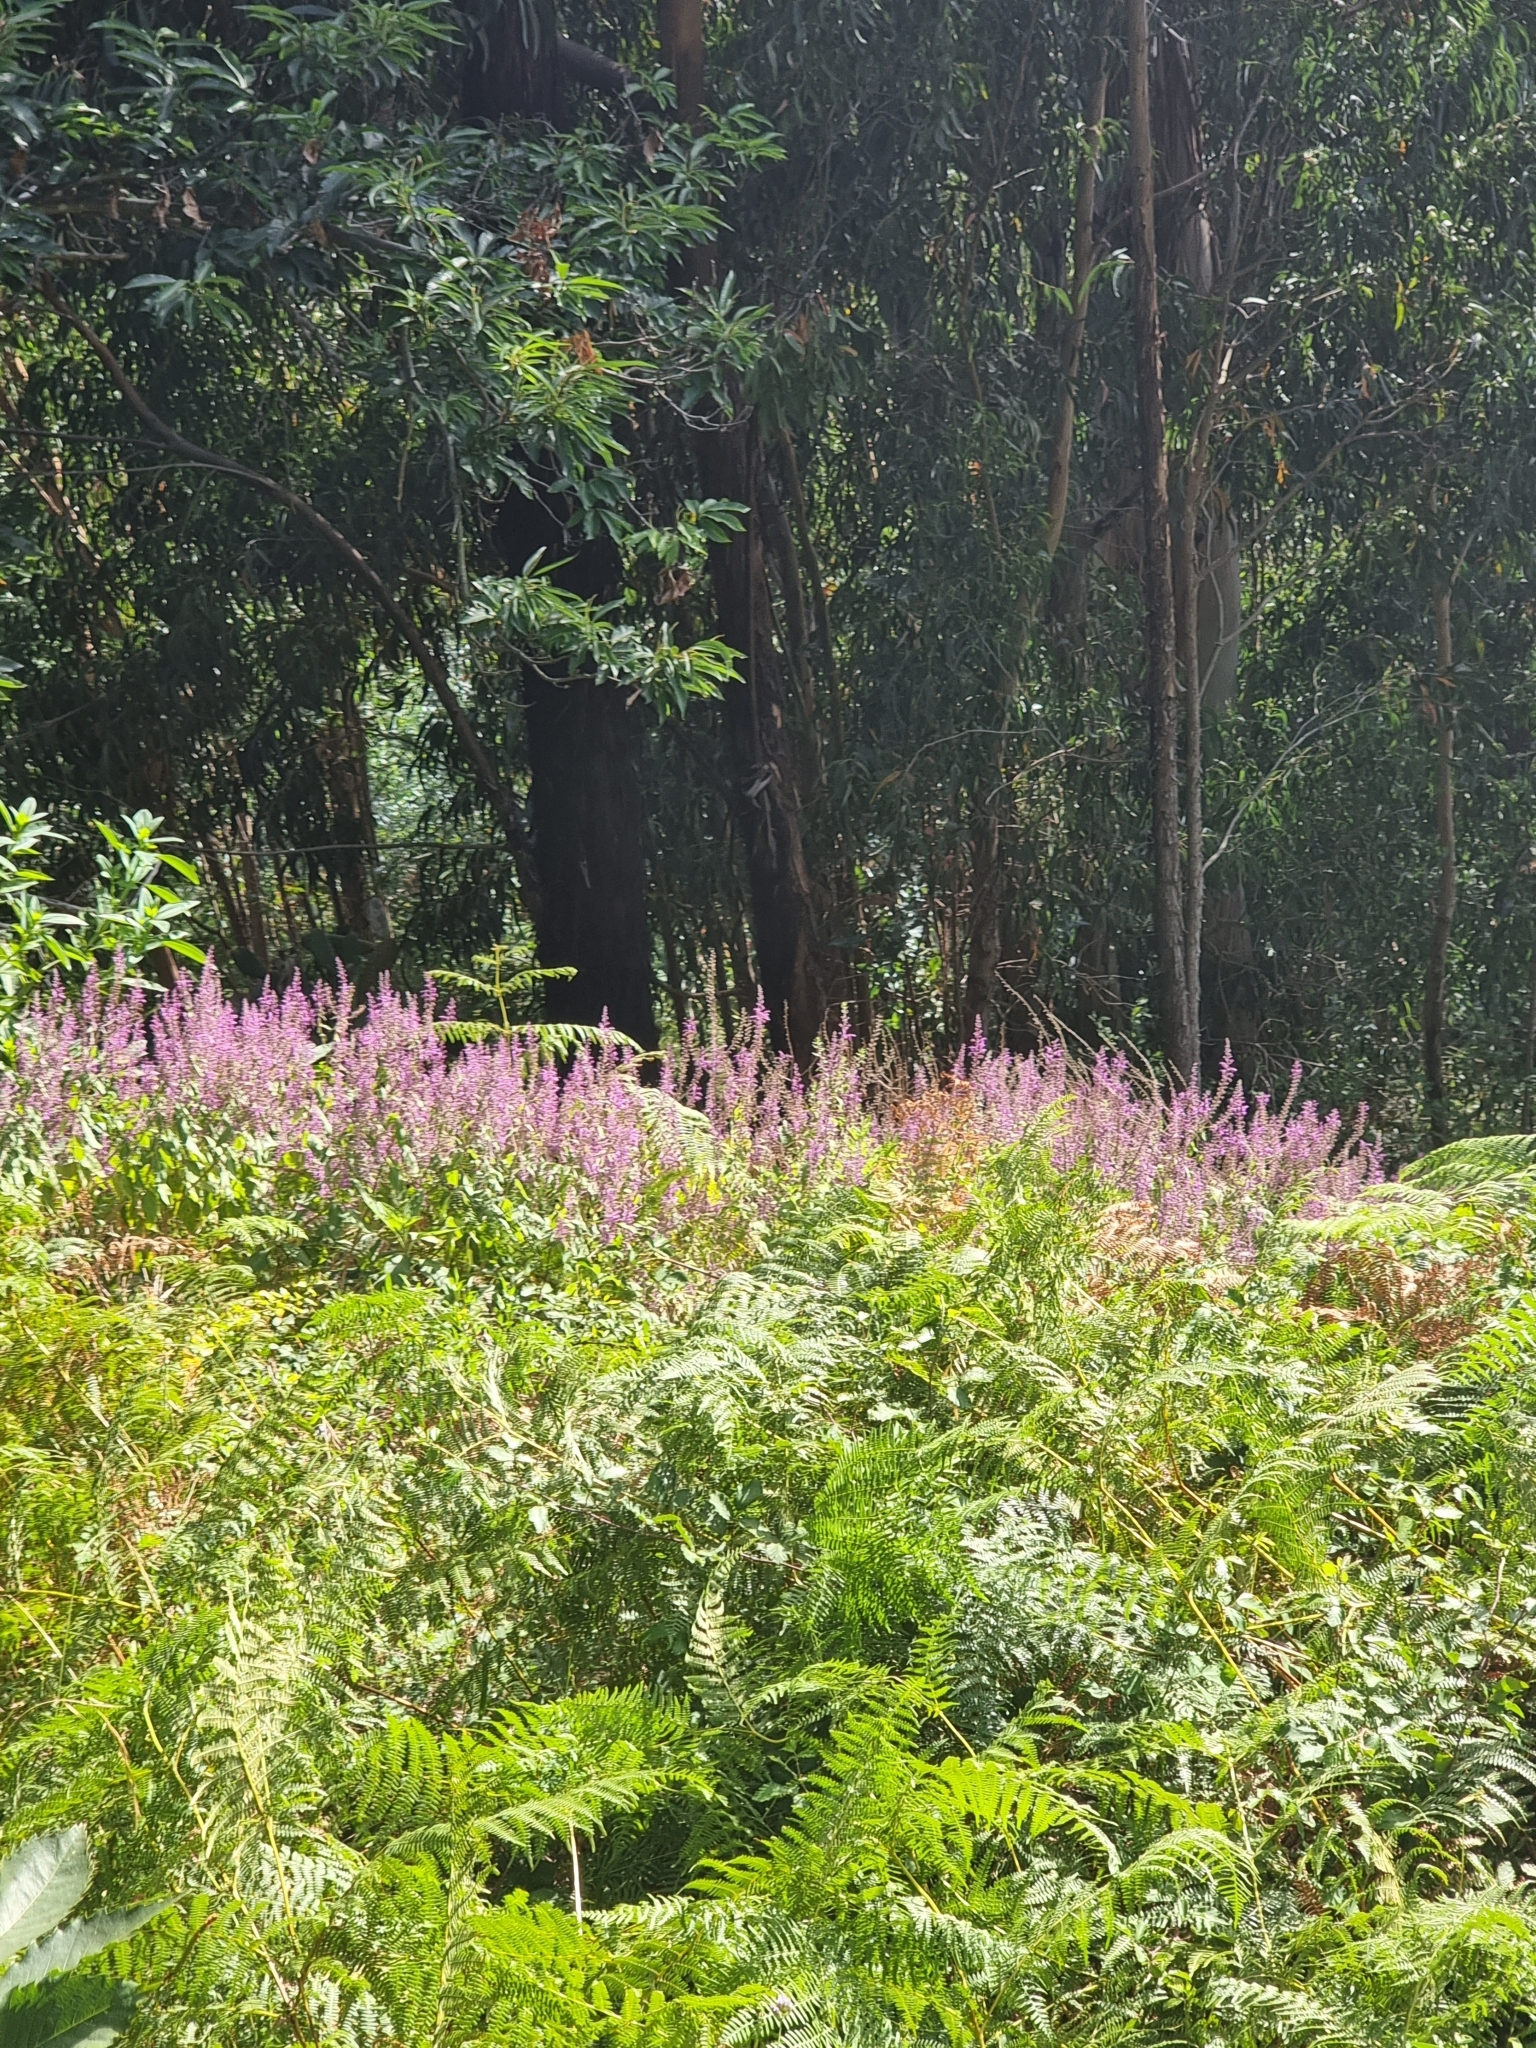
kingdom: Plantae
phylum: Tracheophyta
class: Magnoliopsida
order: Lamiales
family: Lamiaceae
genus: Teucrium
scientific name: Teucrium betonicum
